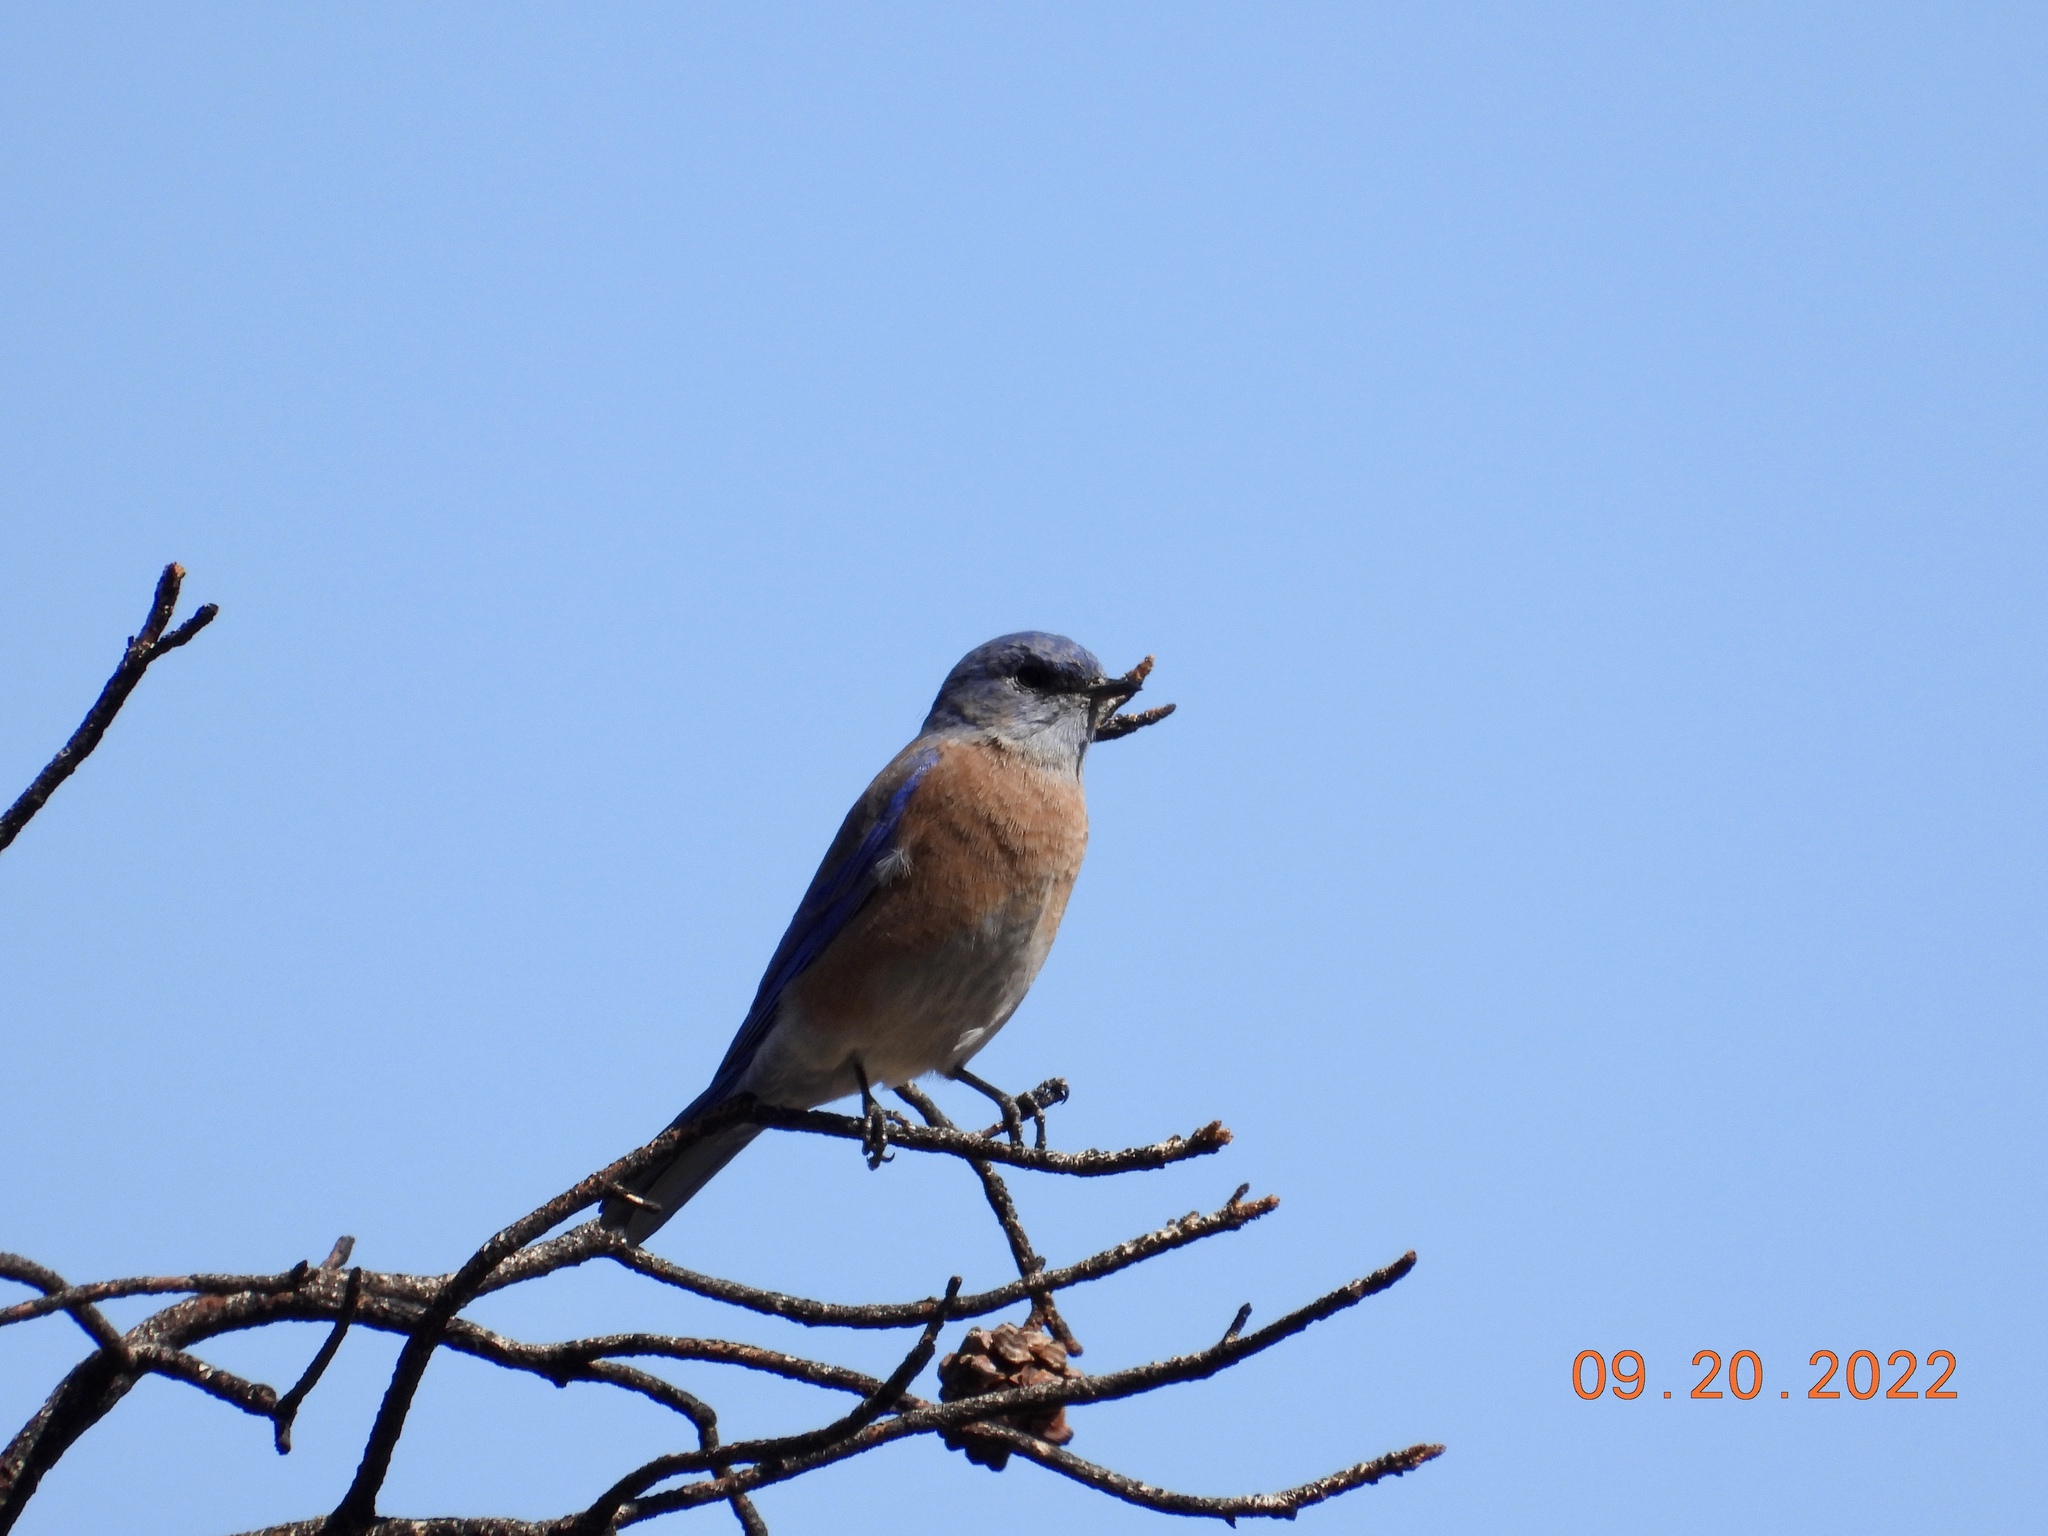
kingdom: Animalia
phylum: Chordata
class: Aves
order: Passeriformes
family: Turdidae
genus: Sialia
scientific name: Sialia mexicana
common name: Western bluebird
